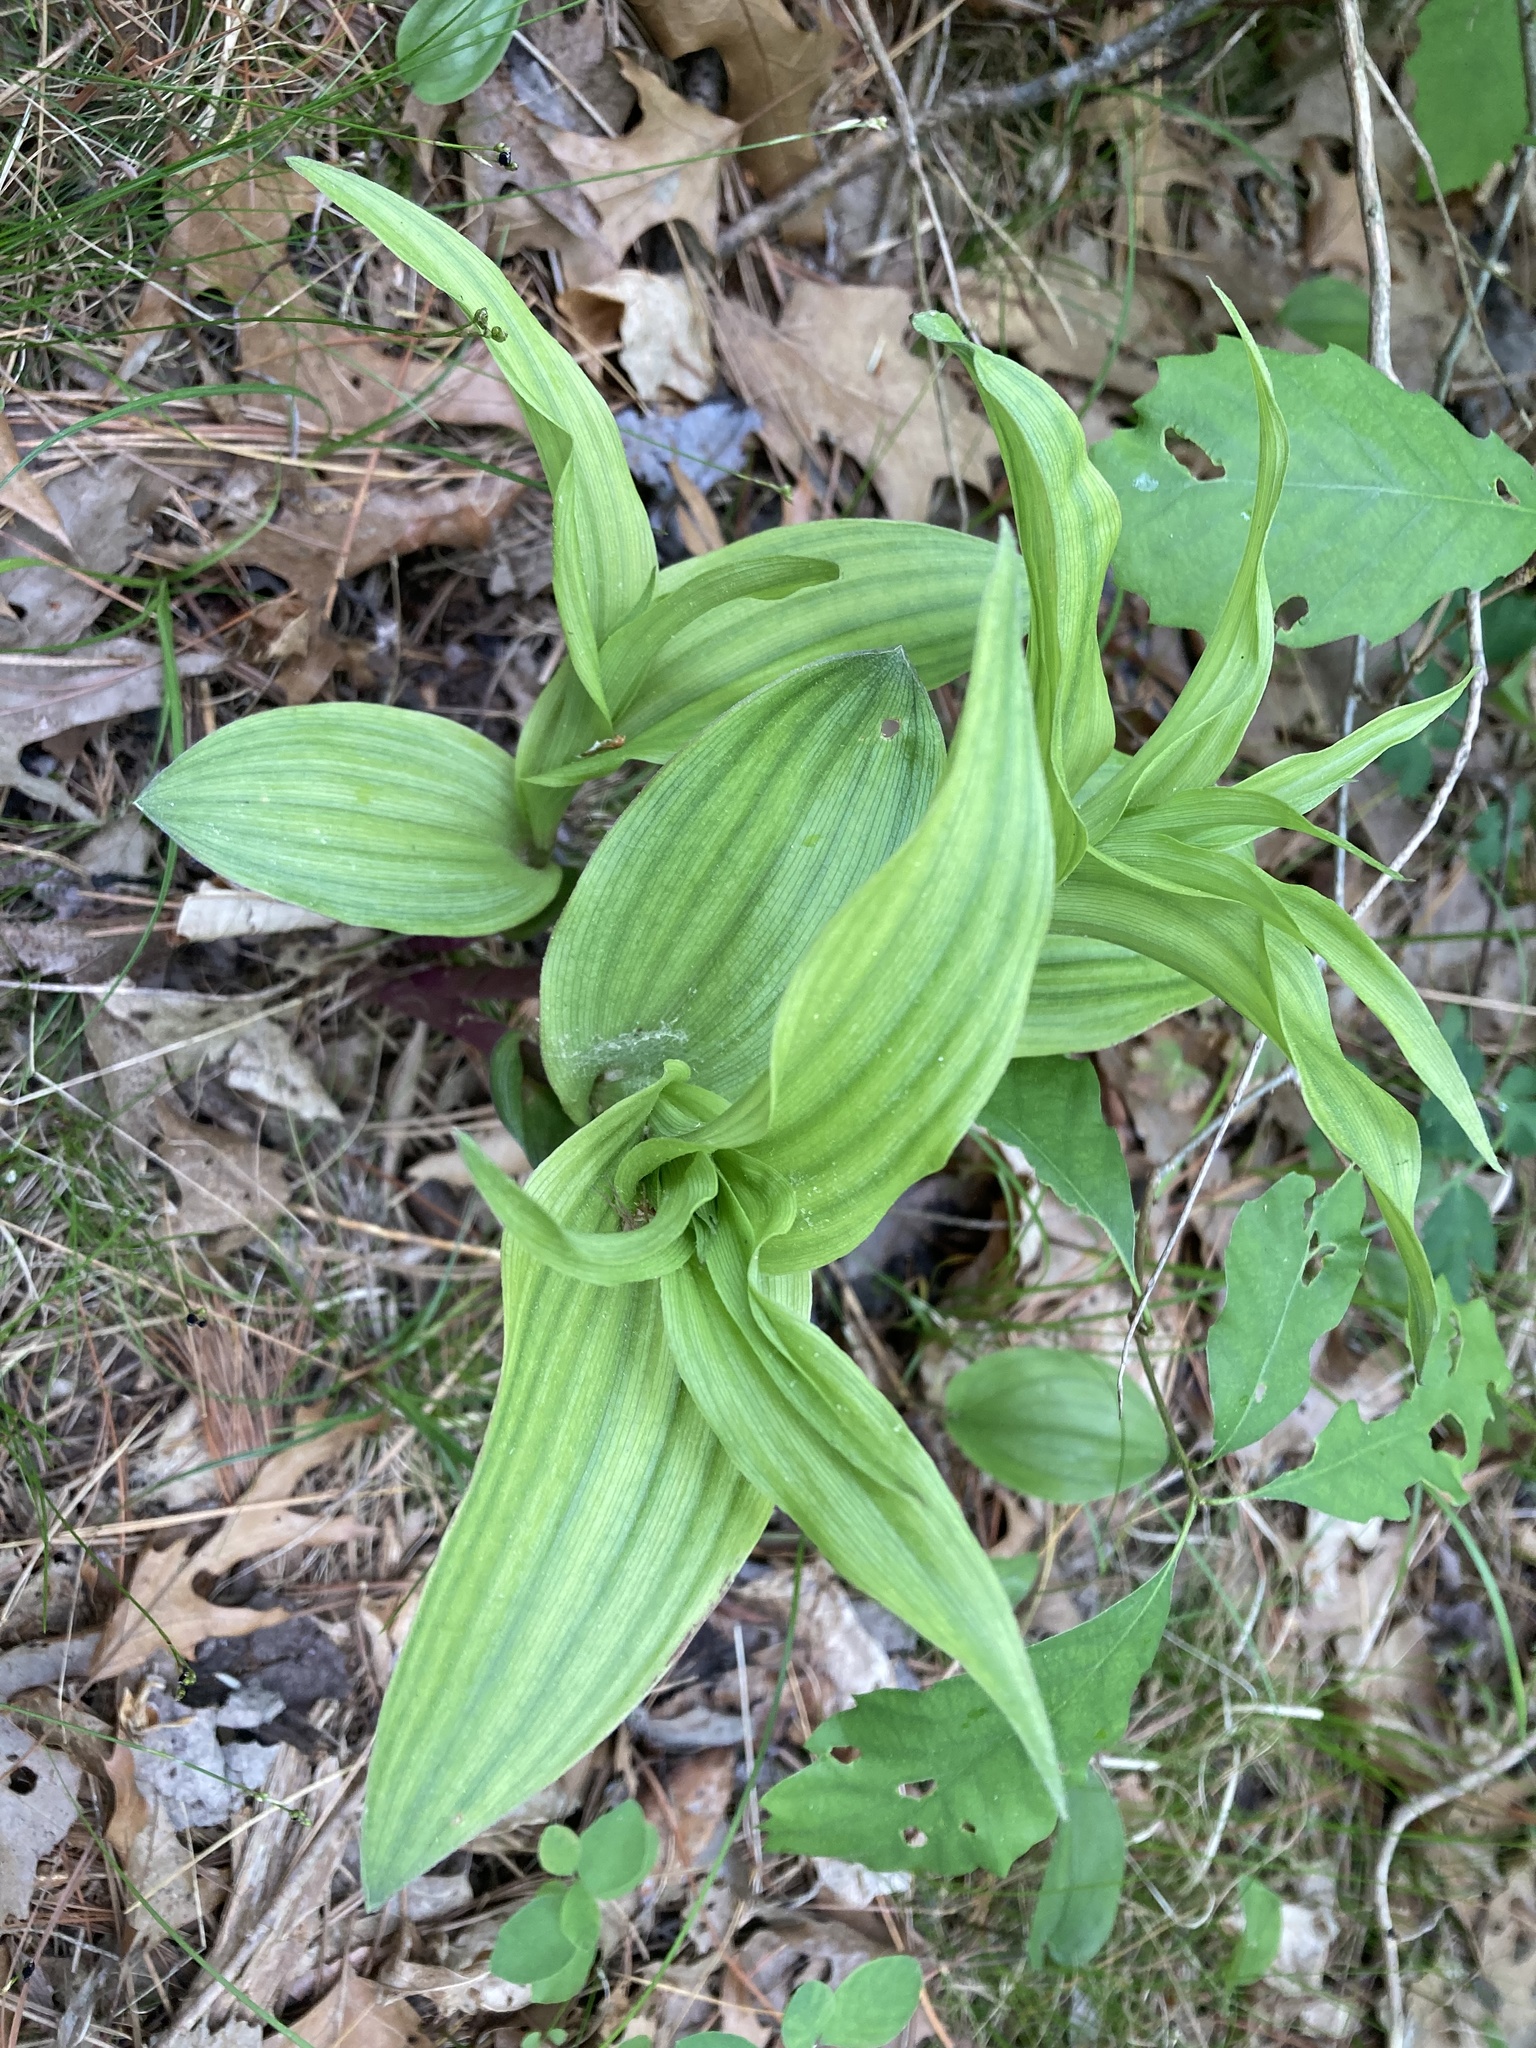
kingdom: Plantae
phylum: Tracheophyta
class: Liliopsida
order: Asparagales
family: Orchidaceae
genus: Epipactis
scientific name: Epipactis helleborine
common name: Broad-leaved helleborine
